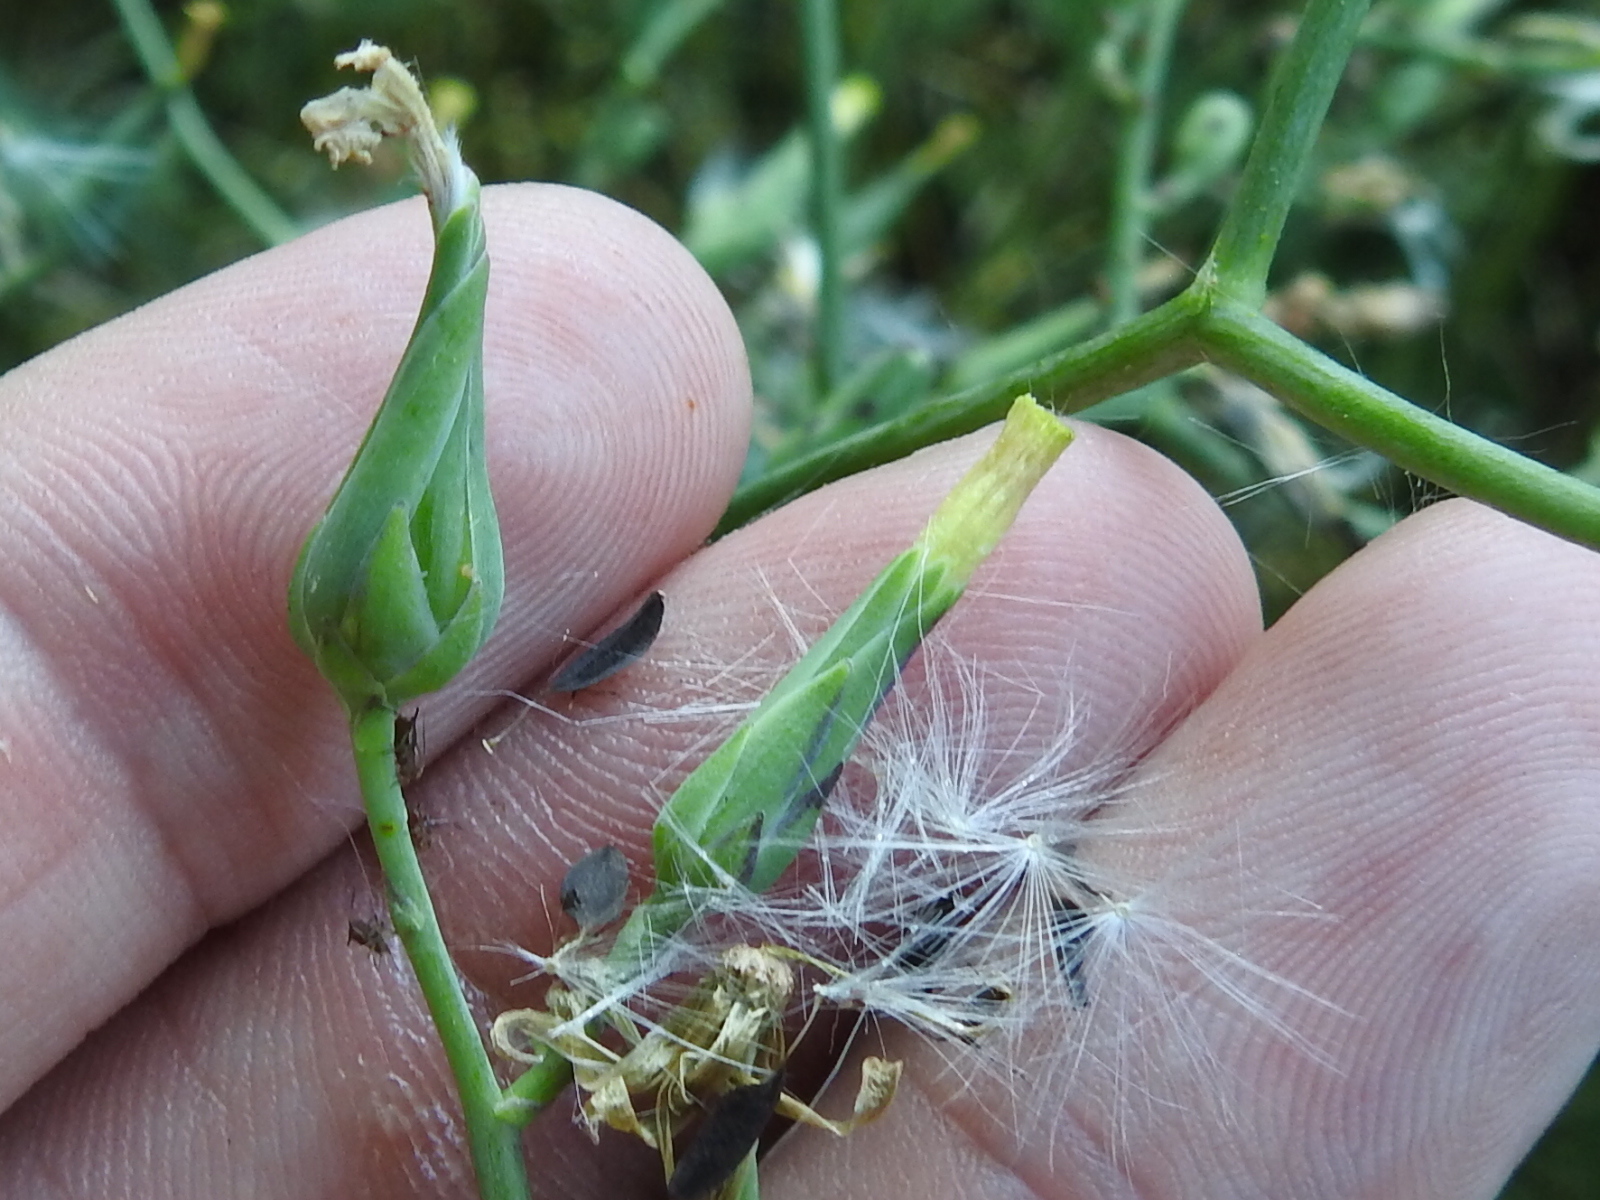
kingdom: Plantae
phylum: Tracheophyta
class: Magnoliopsida
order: Asterales
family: Asteraceae
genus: Lactuca
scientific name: Lactuca ludoviciana
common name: Louisiana lettuce
